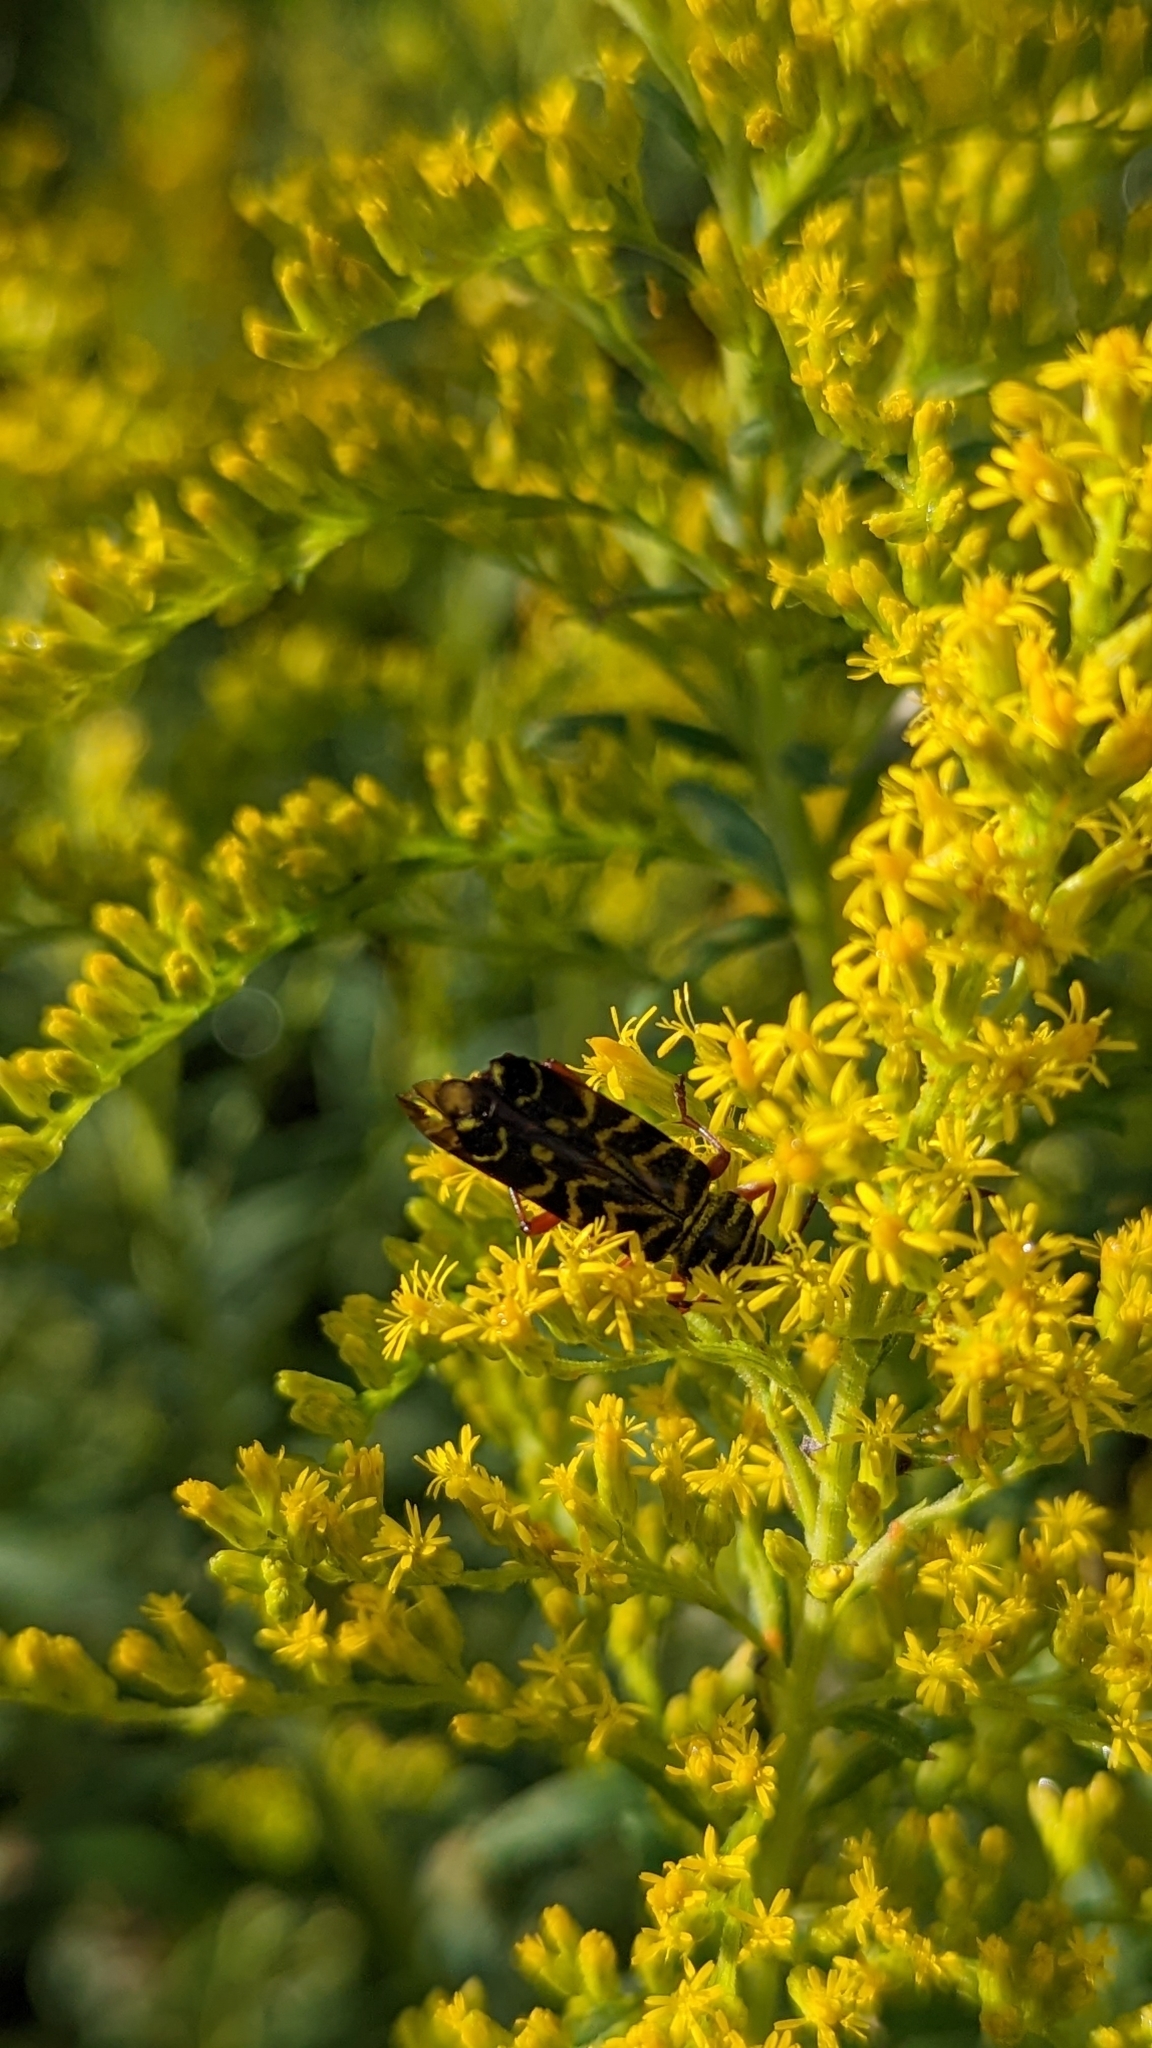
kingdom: Animalia
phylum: Arthropoda
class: Insecta
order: Coleoptera
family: Cerambycidae
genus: Megacyllene
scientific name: Megacyllene robiniae
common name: Locust borer
